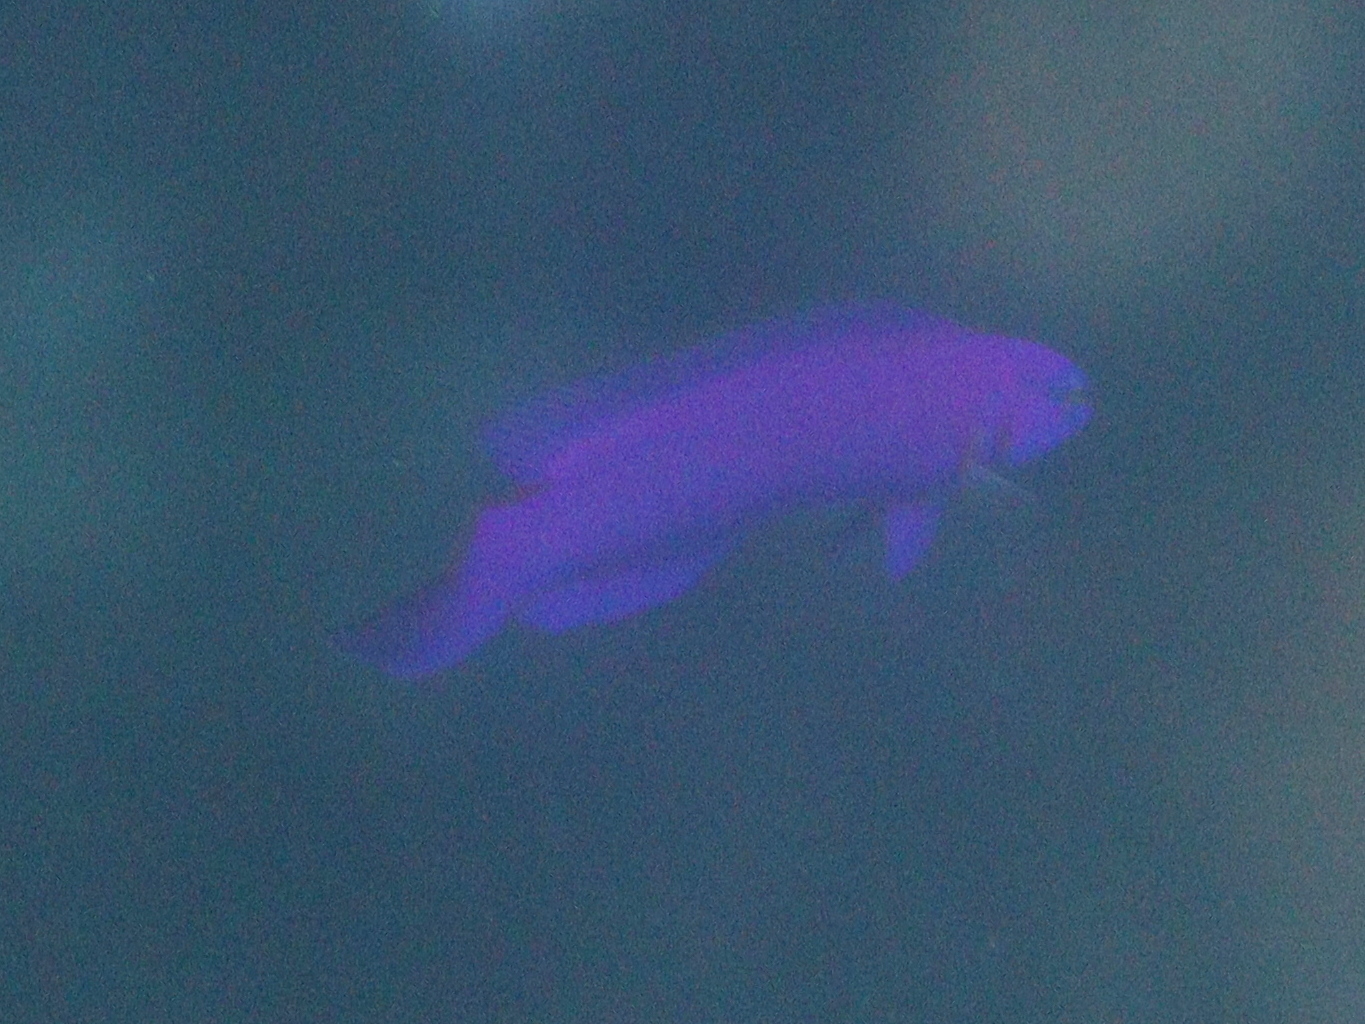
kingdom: Animalia
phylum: Chordata
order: Perciformes
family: Pseudochromidae
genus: Pseudochromis
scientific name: Pseudochromis fridmani
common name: Orchid dottyback
